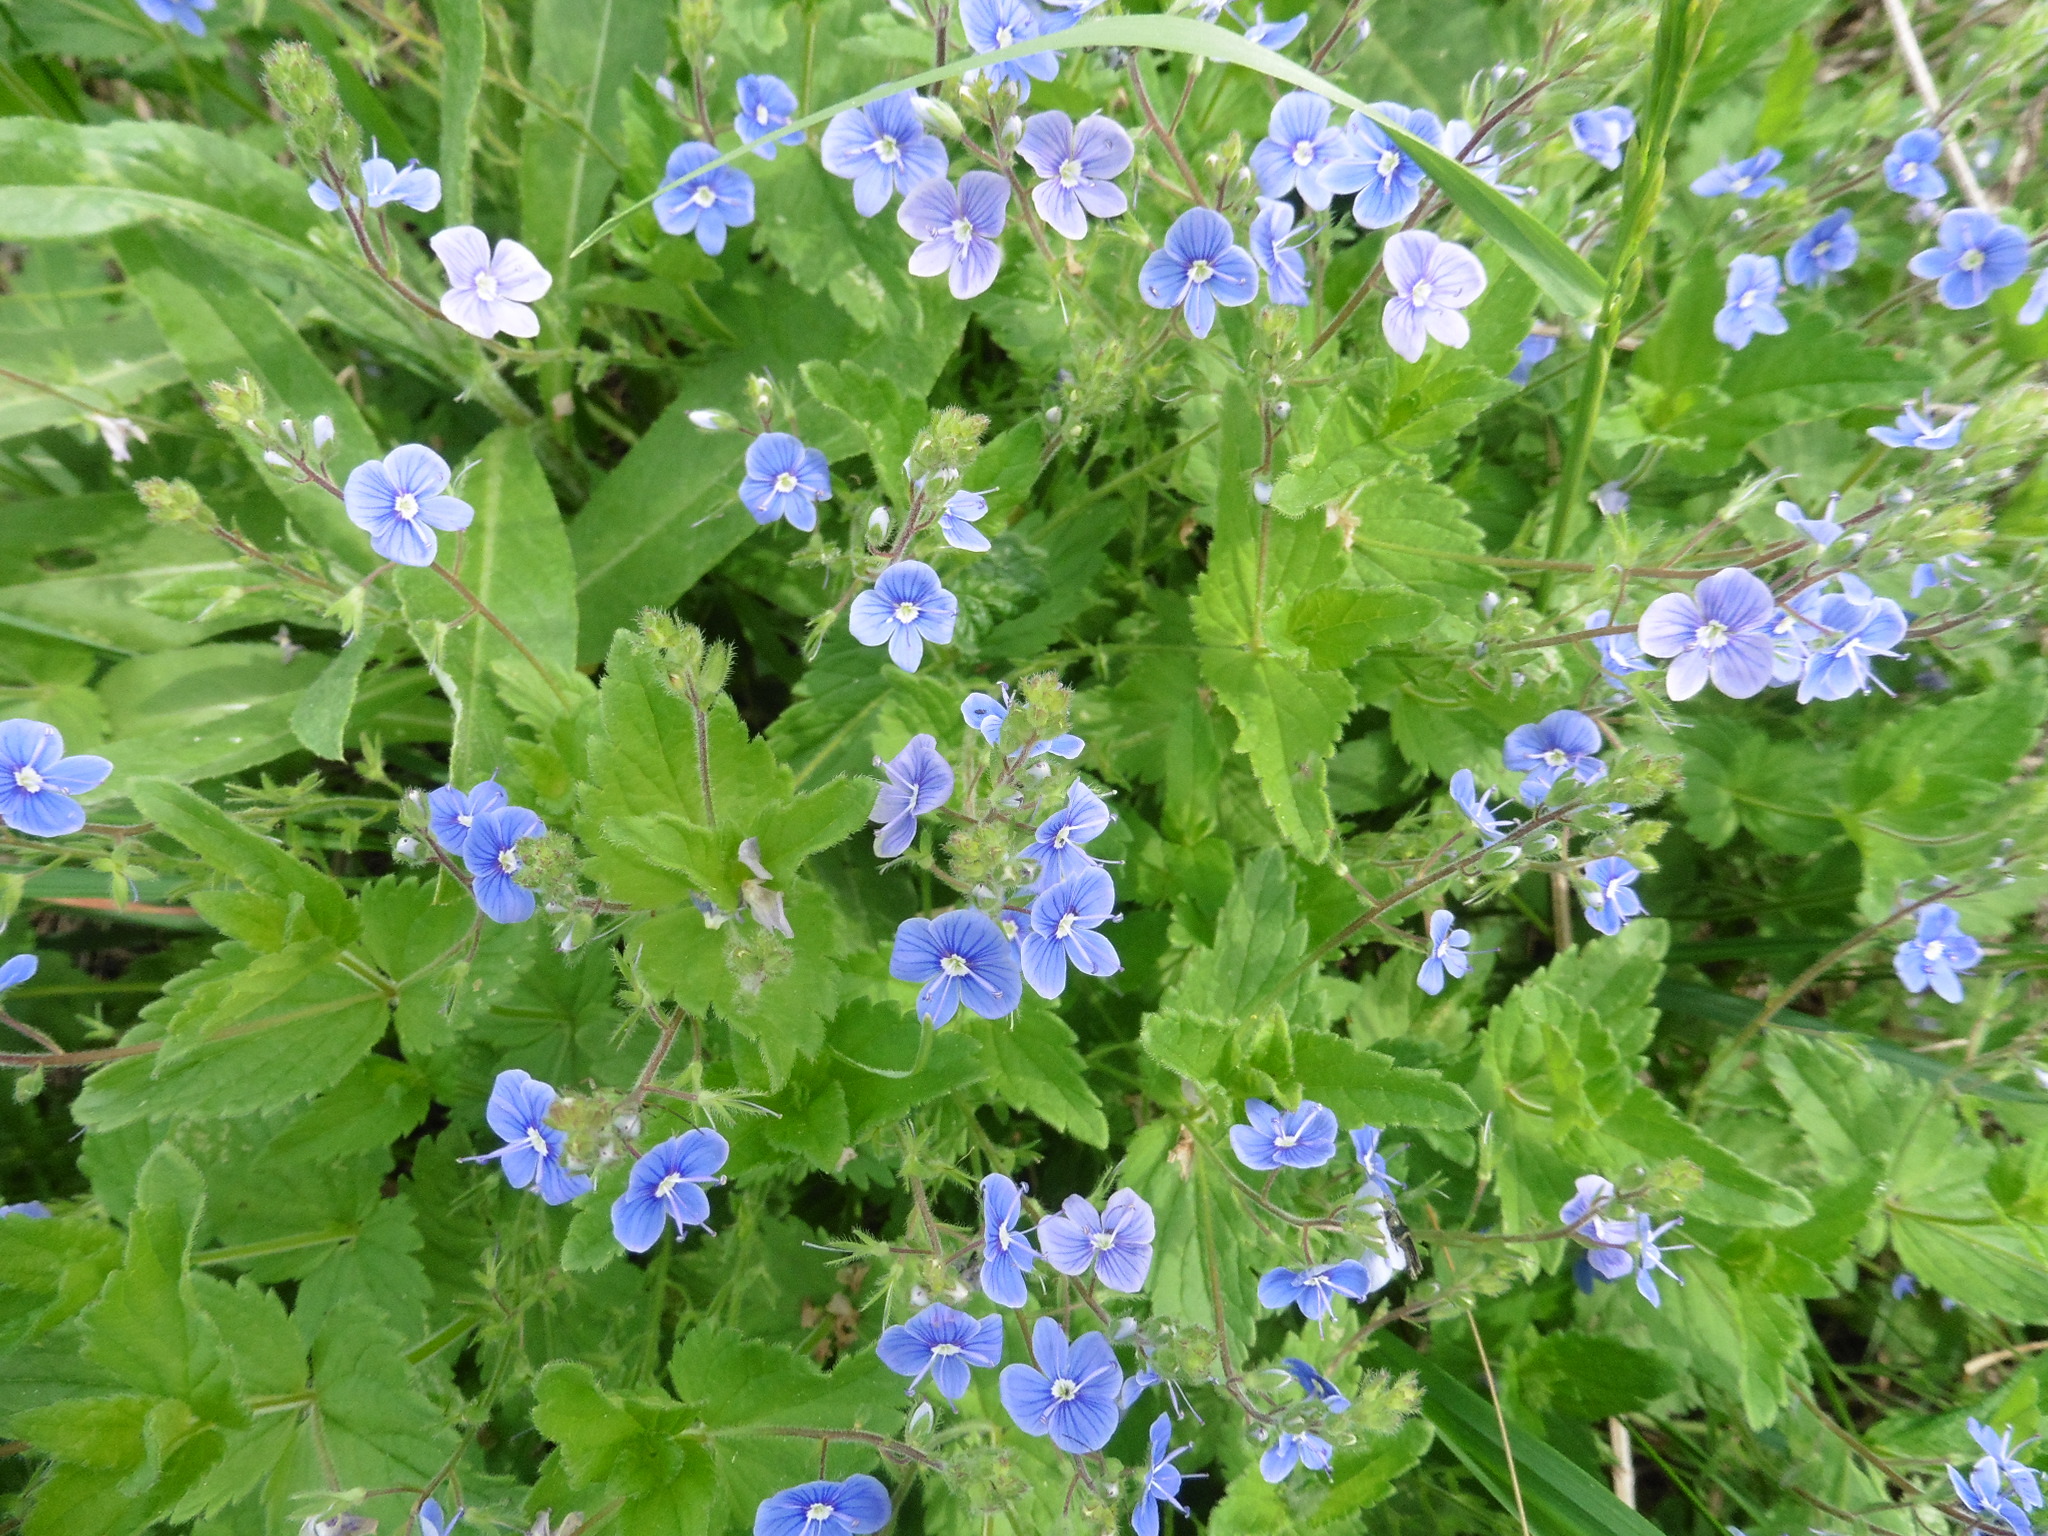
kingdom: Plantae
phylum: Tracheophyta
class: Magnoliopsida
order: Lamiales
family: Plantaginaceae
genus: Veronica
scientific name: Veronica chamaedrys
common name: Germander speedwell
